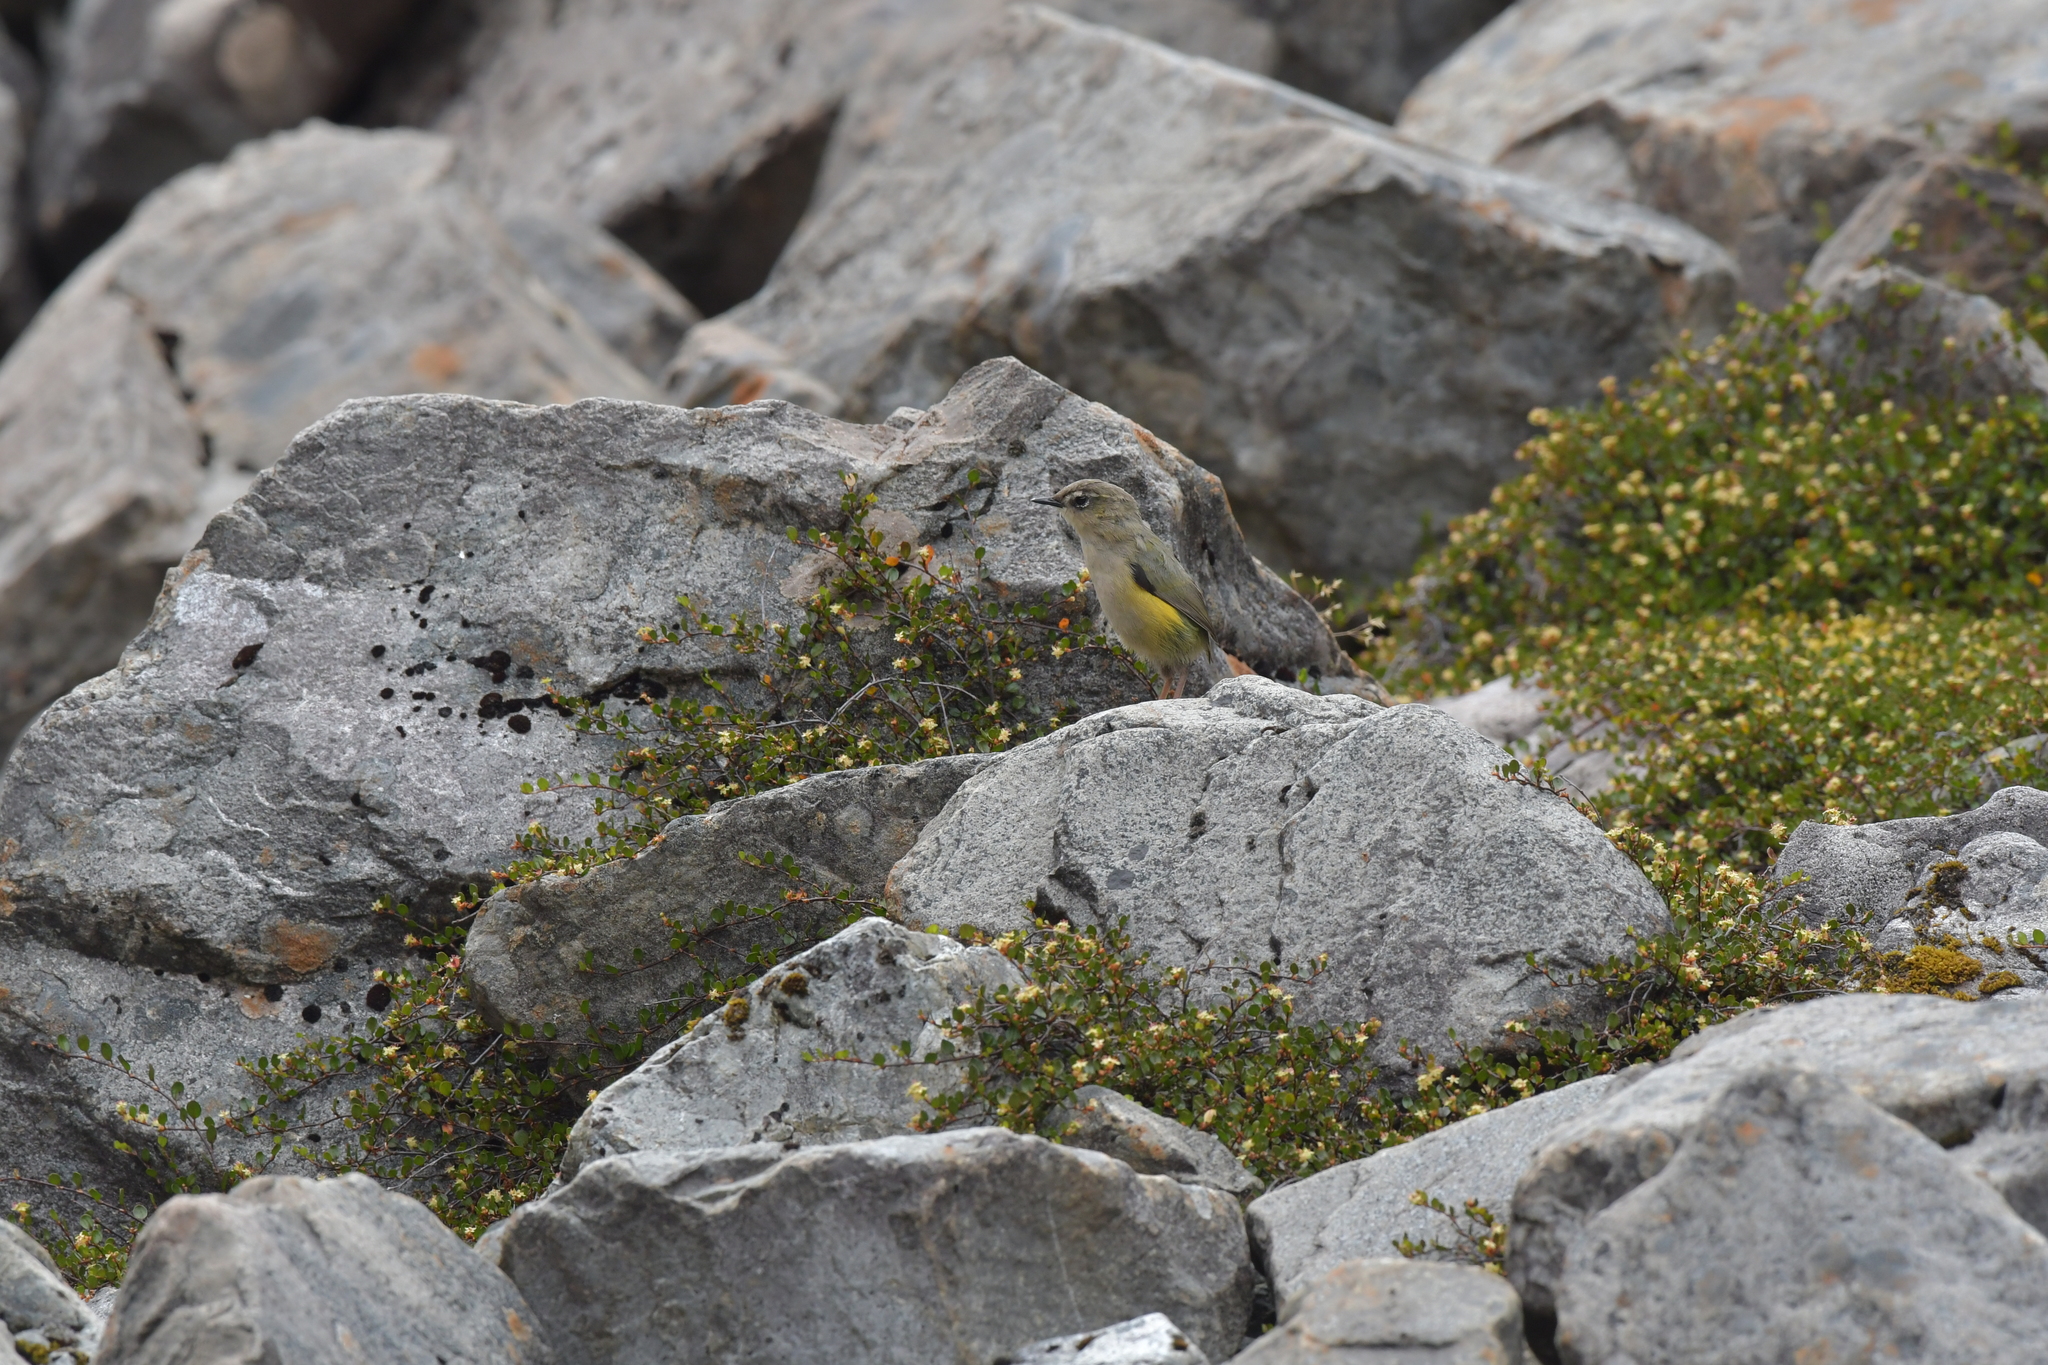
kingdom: Animalia
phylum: Chordata
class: Aves
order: Passeriformes
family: Acanthisittidae
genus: Xenicus
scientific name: Xenicus gilviventris
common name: New zealand rockwren
